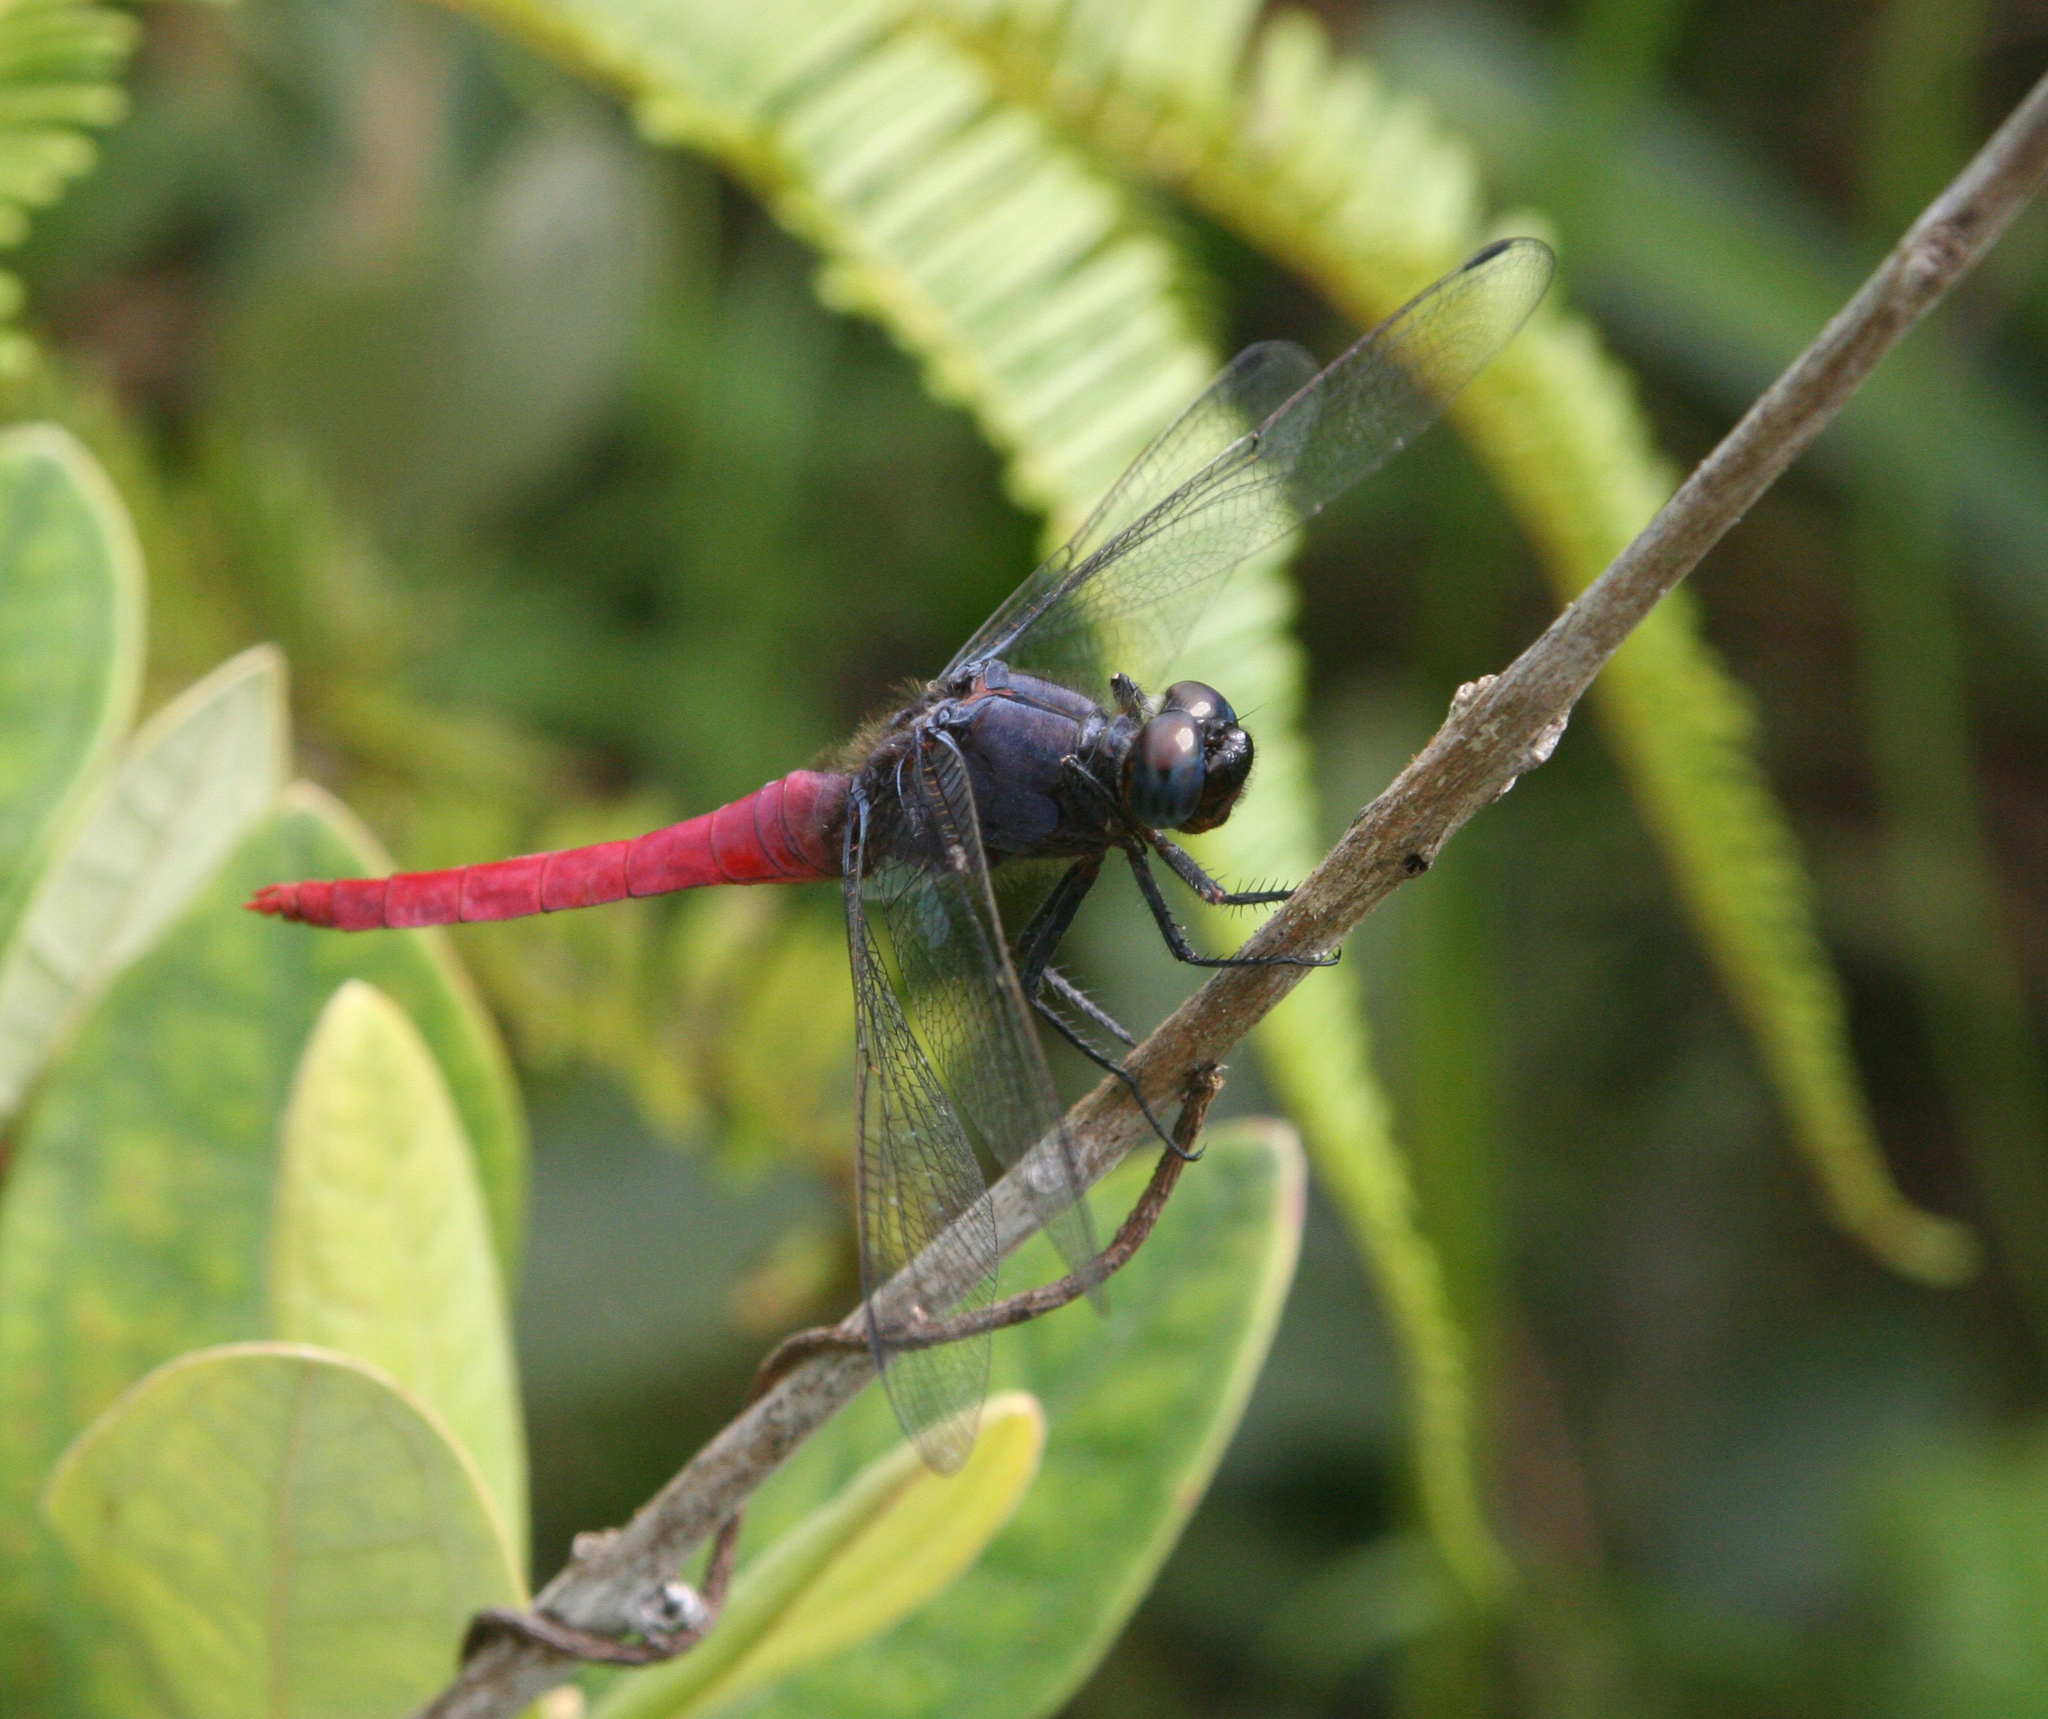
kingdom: Animalia
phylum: Arthropoda
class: Insecta
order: Odonata
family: Libellulidae
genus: Orthetrum
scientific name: Orthetrum pruinosum
